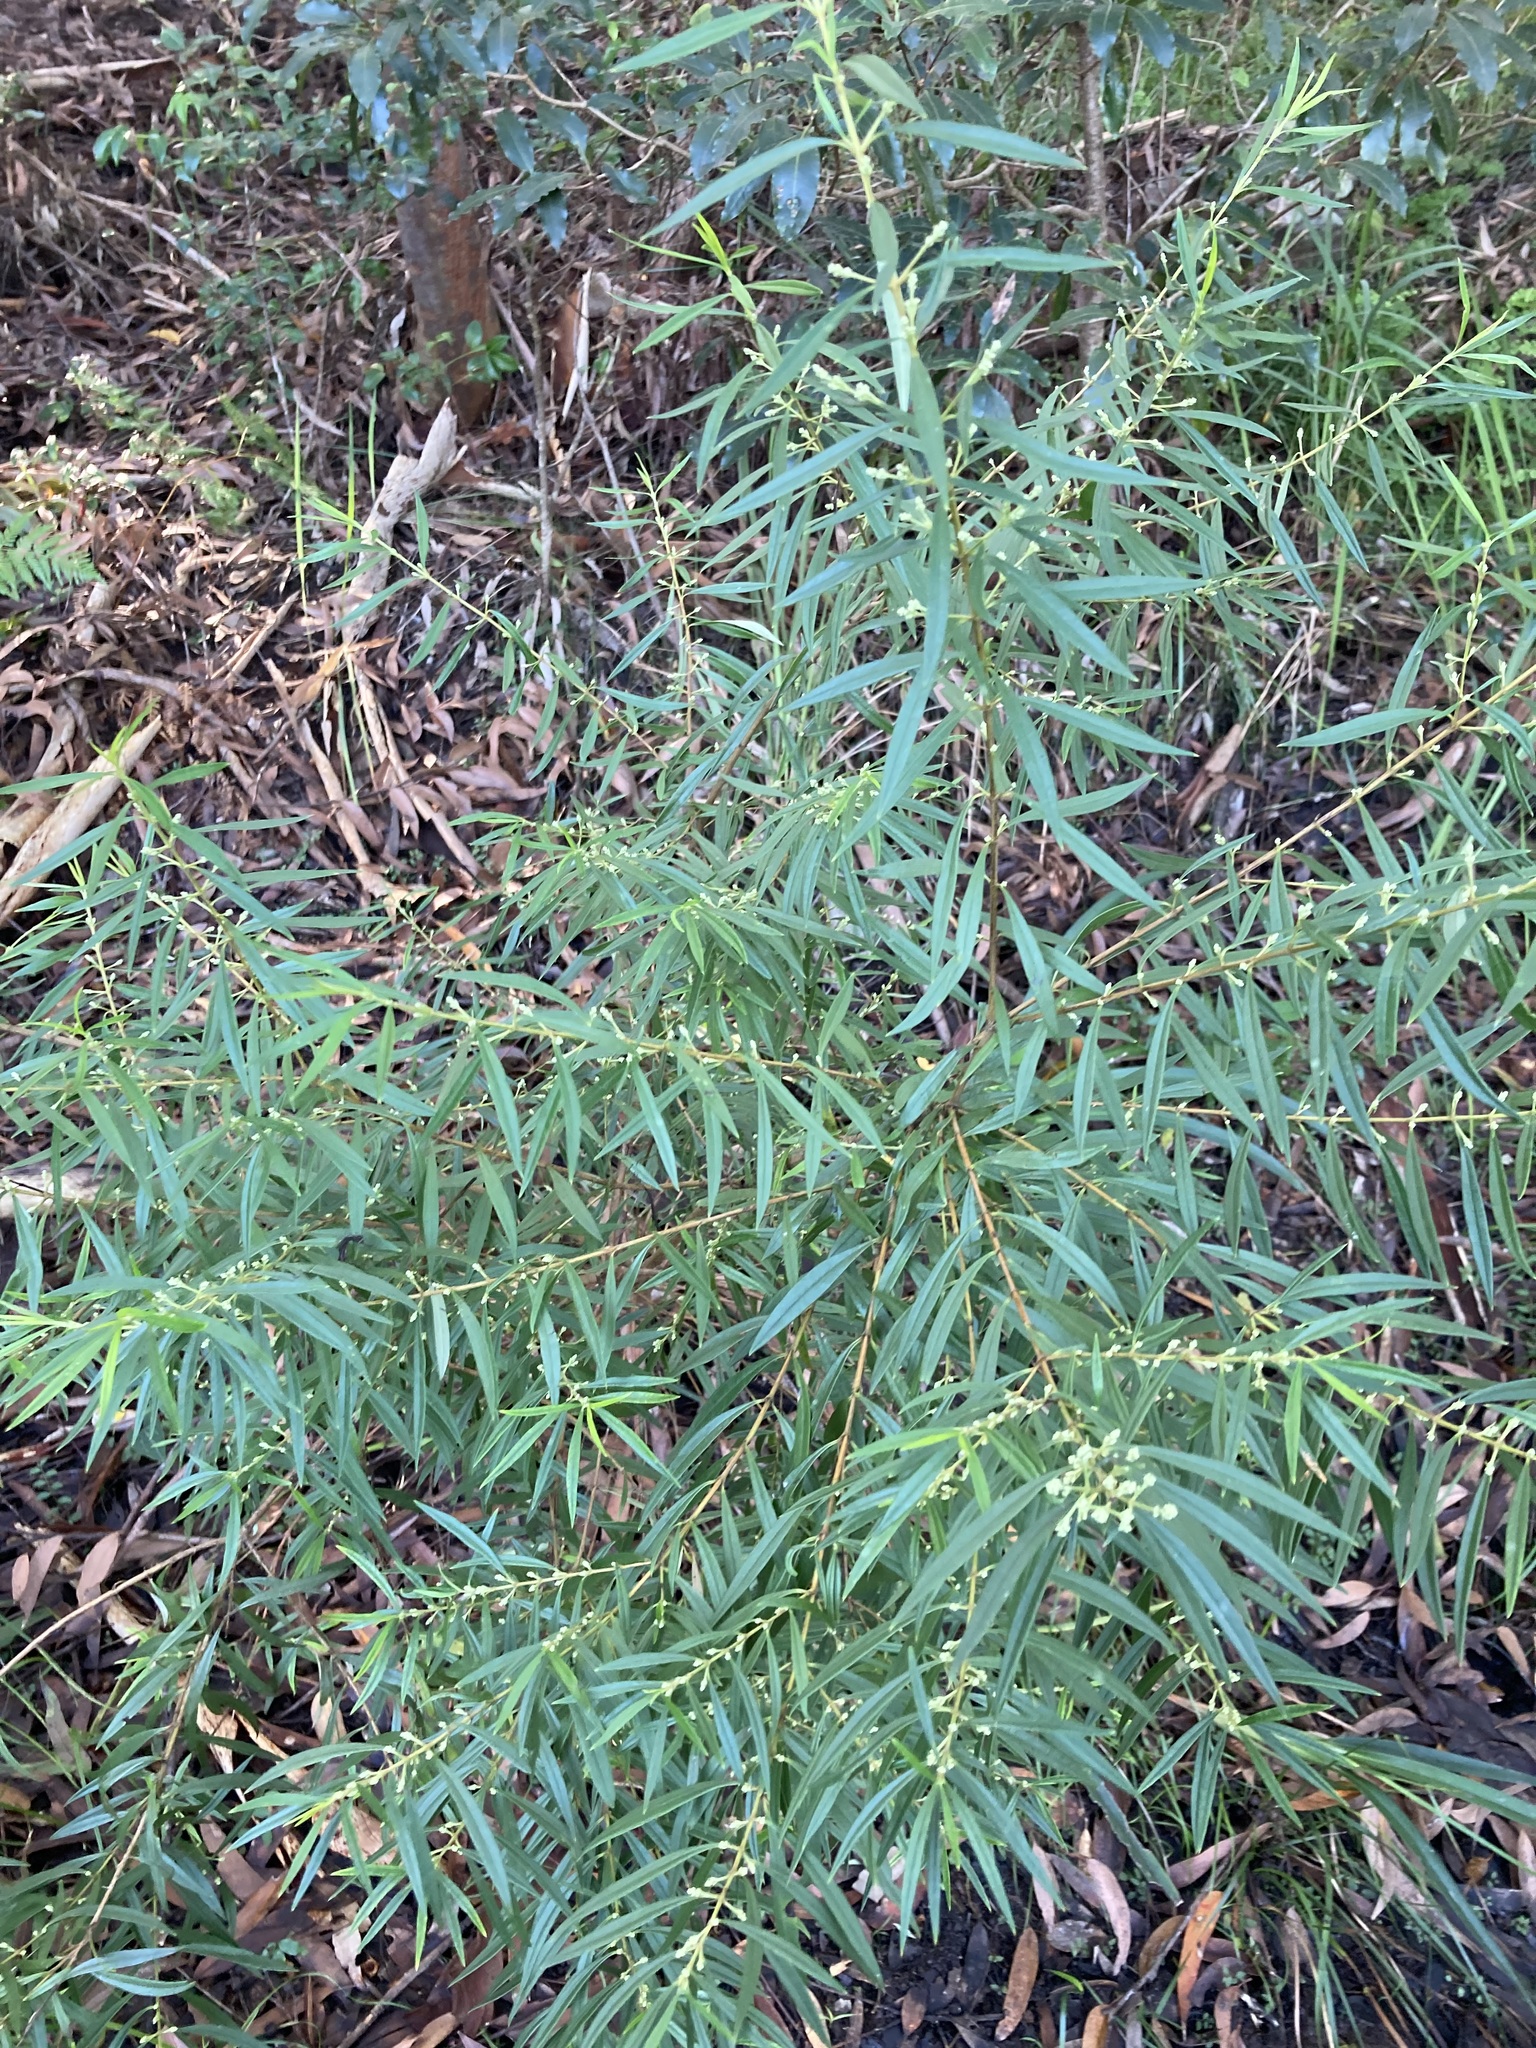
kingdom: Plantae
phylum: Tracheophyta
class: Magnoliopsida
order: Gentianales
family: Loganiaceae
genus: Logania
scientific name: Logania albiflora
